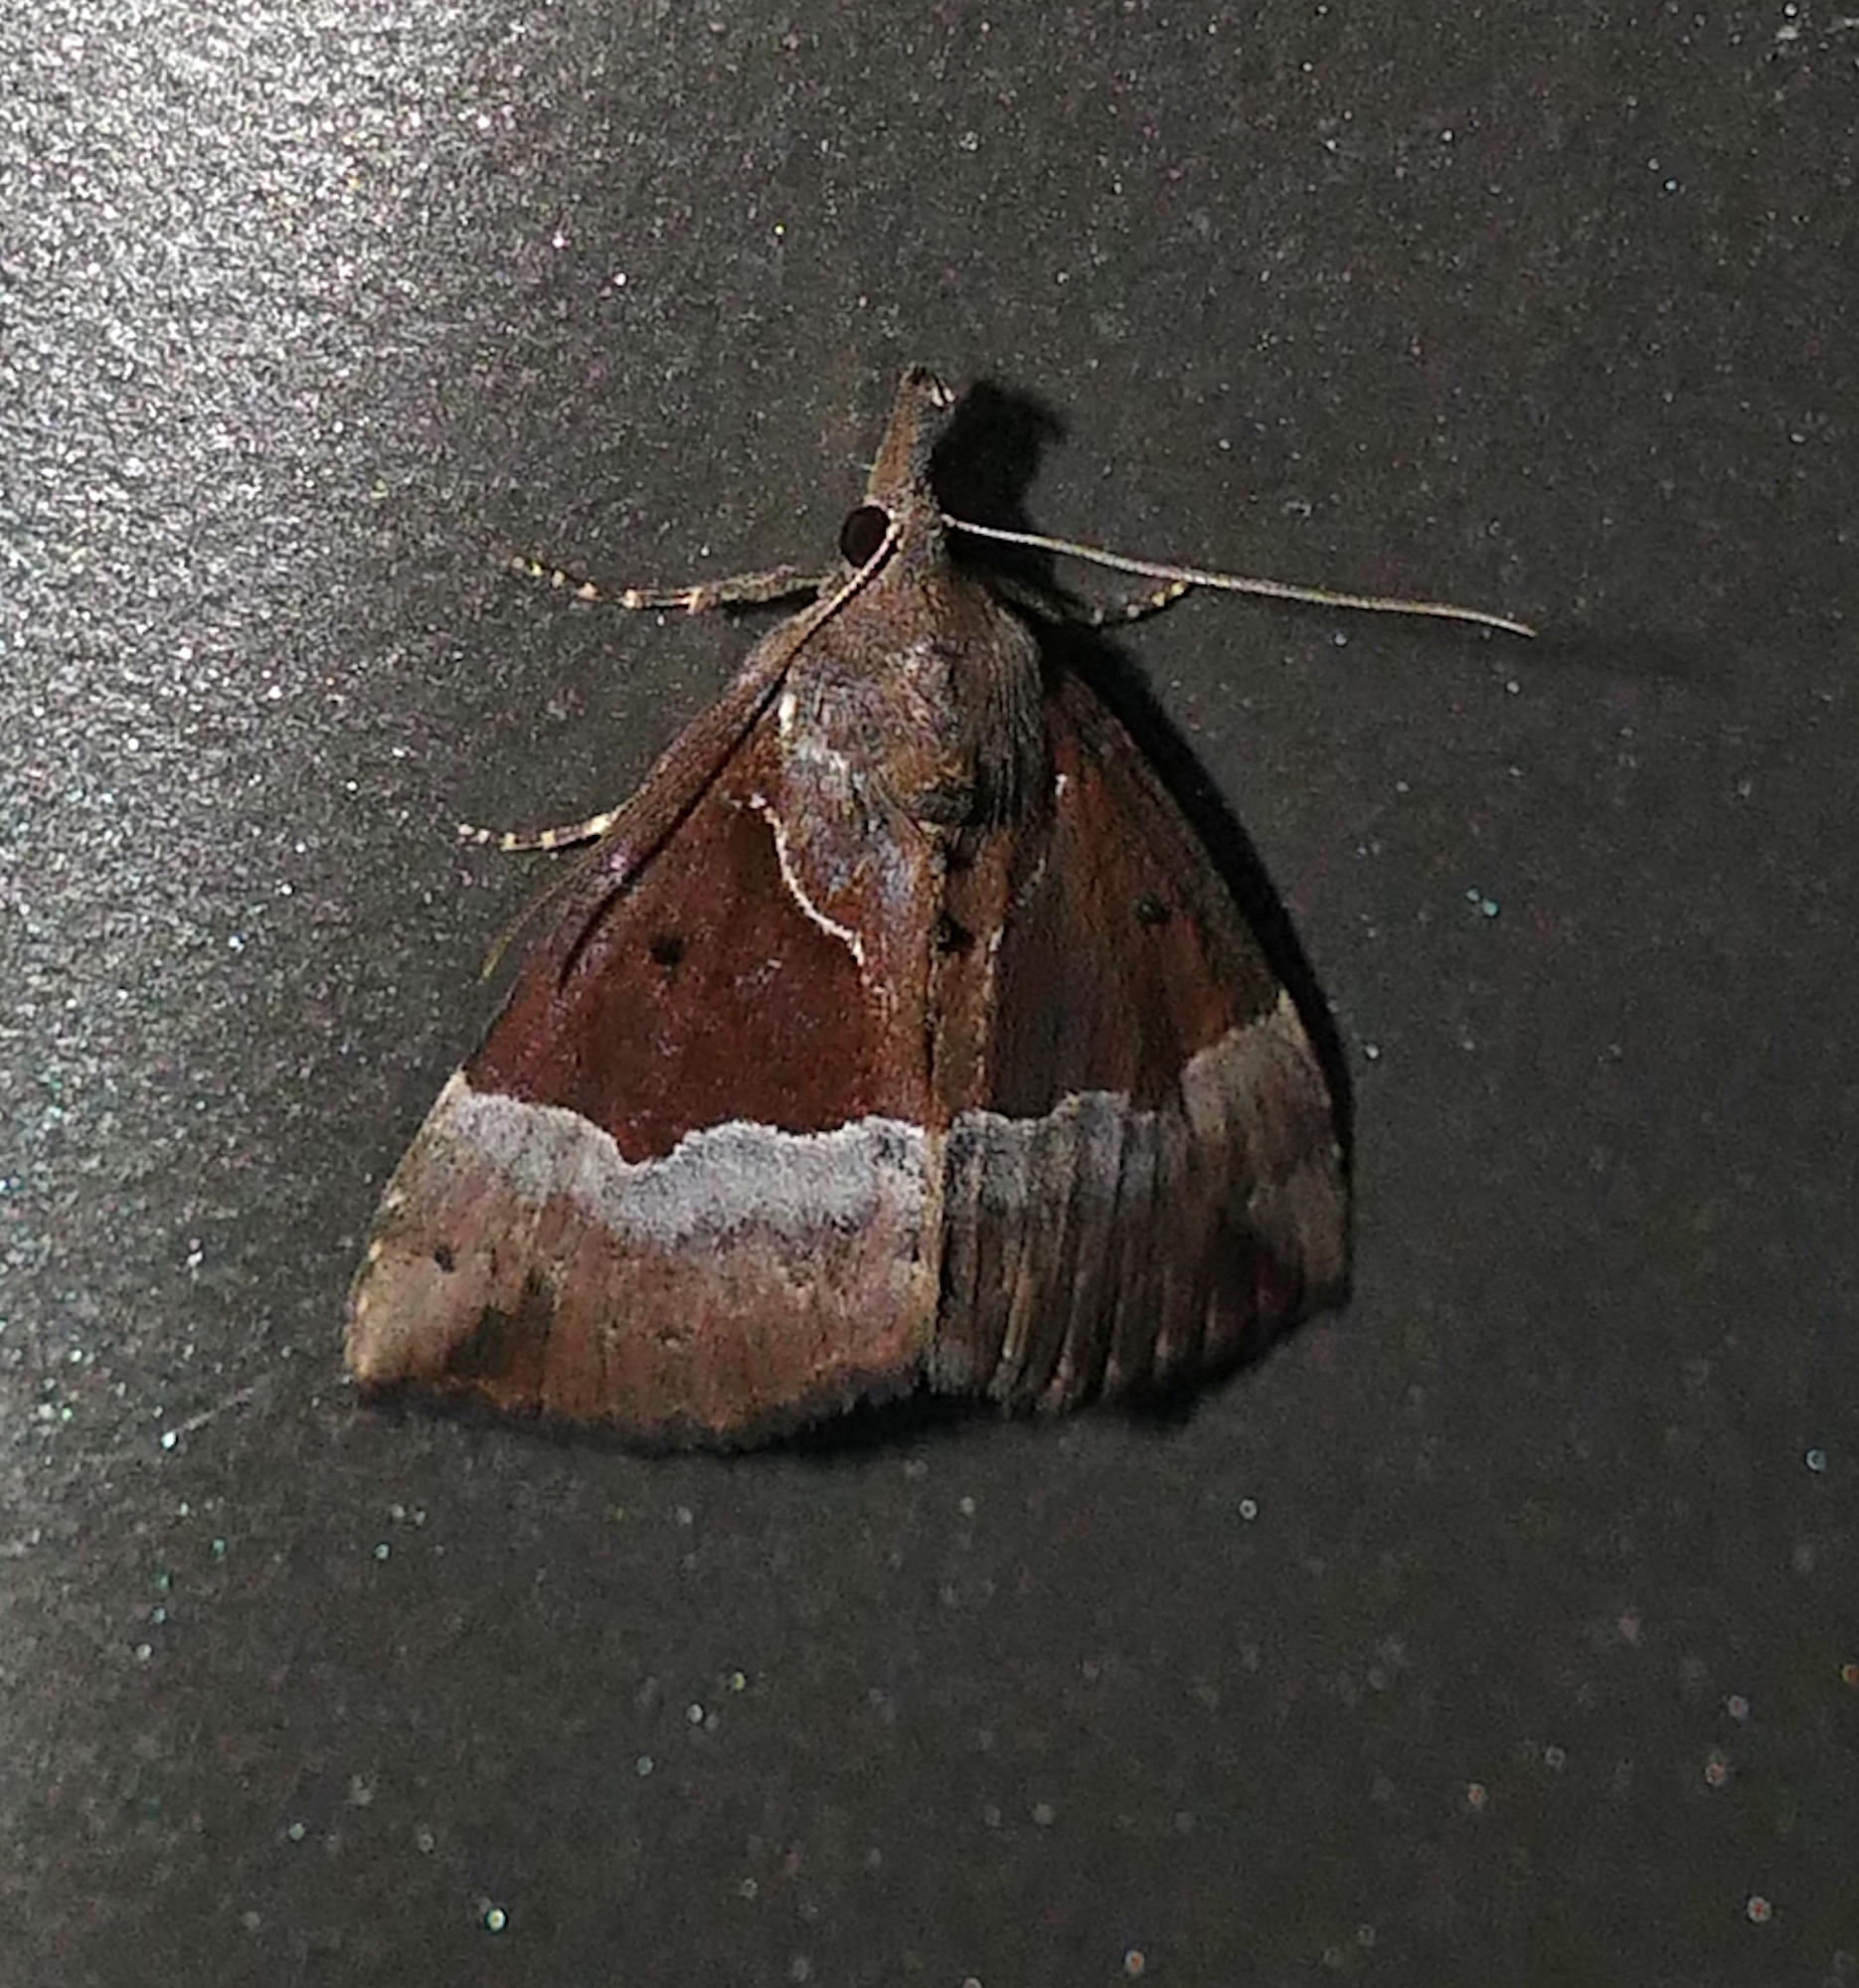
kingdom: Animalia
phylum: Arthropoda
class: Insecta
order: Lepidoptera
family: Erebidae
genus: Hypena
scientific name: Hypena bijugalis
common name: Dimorphic bomolocha moth
